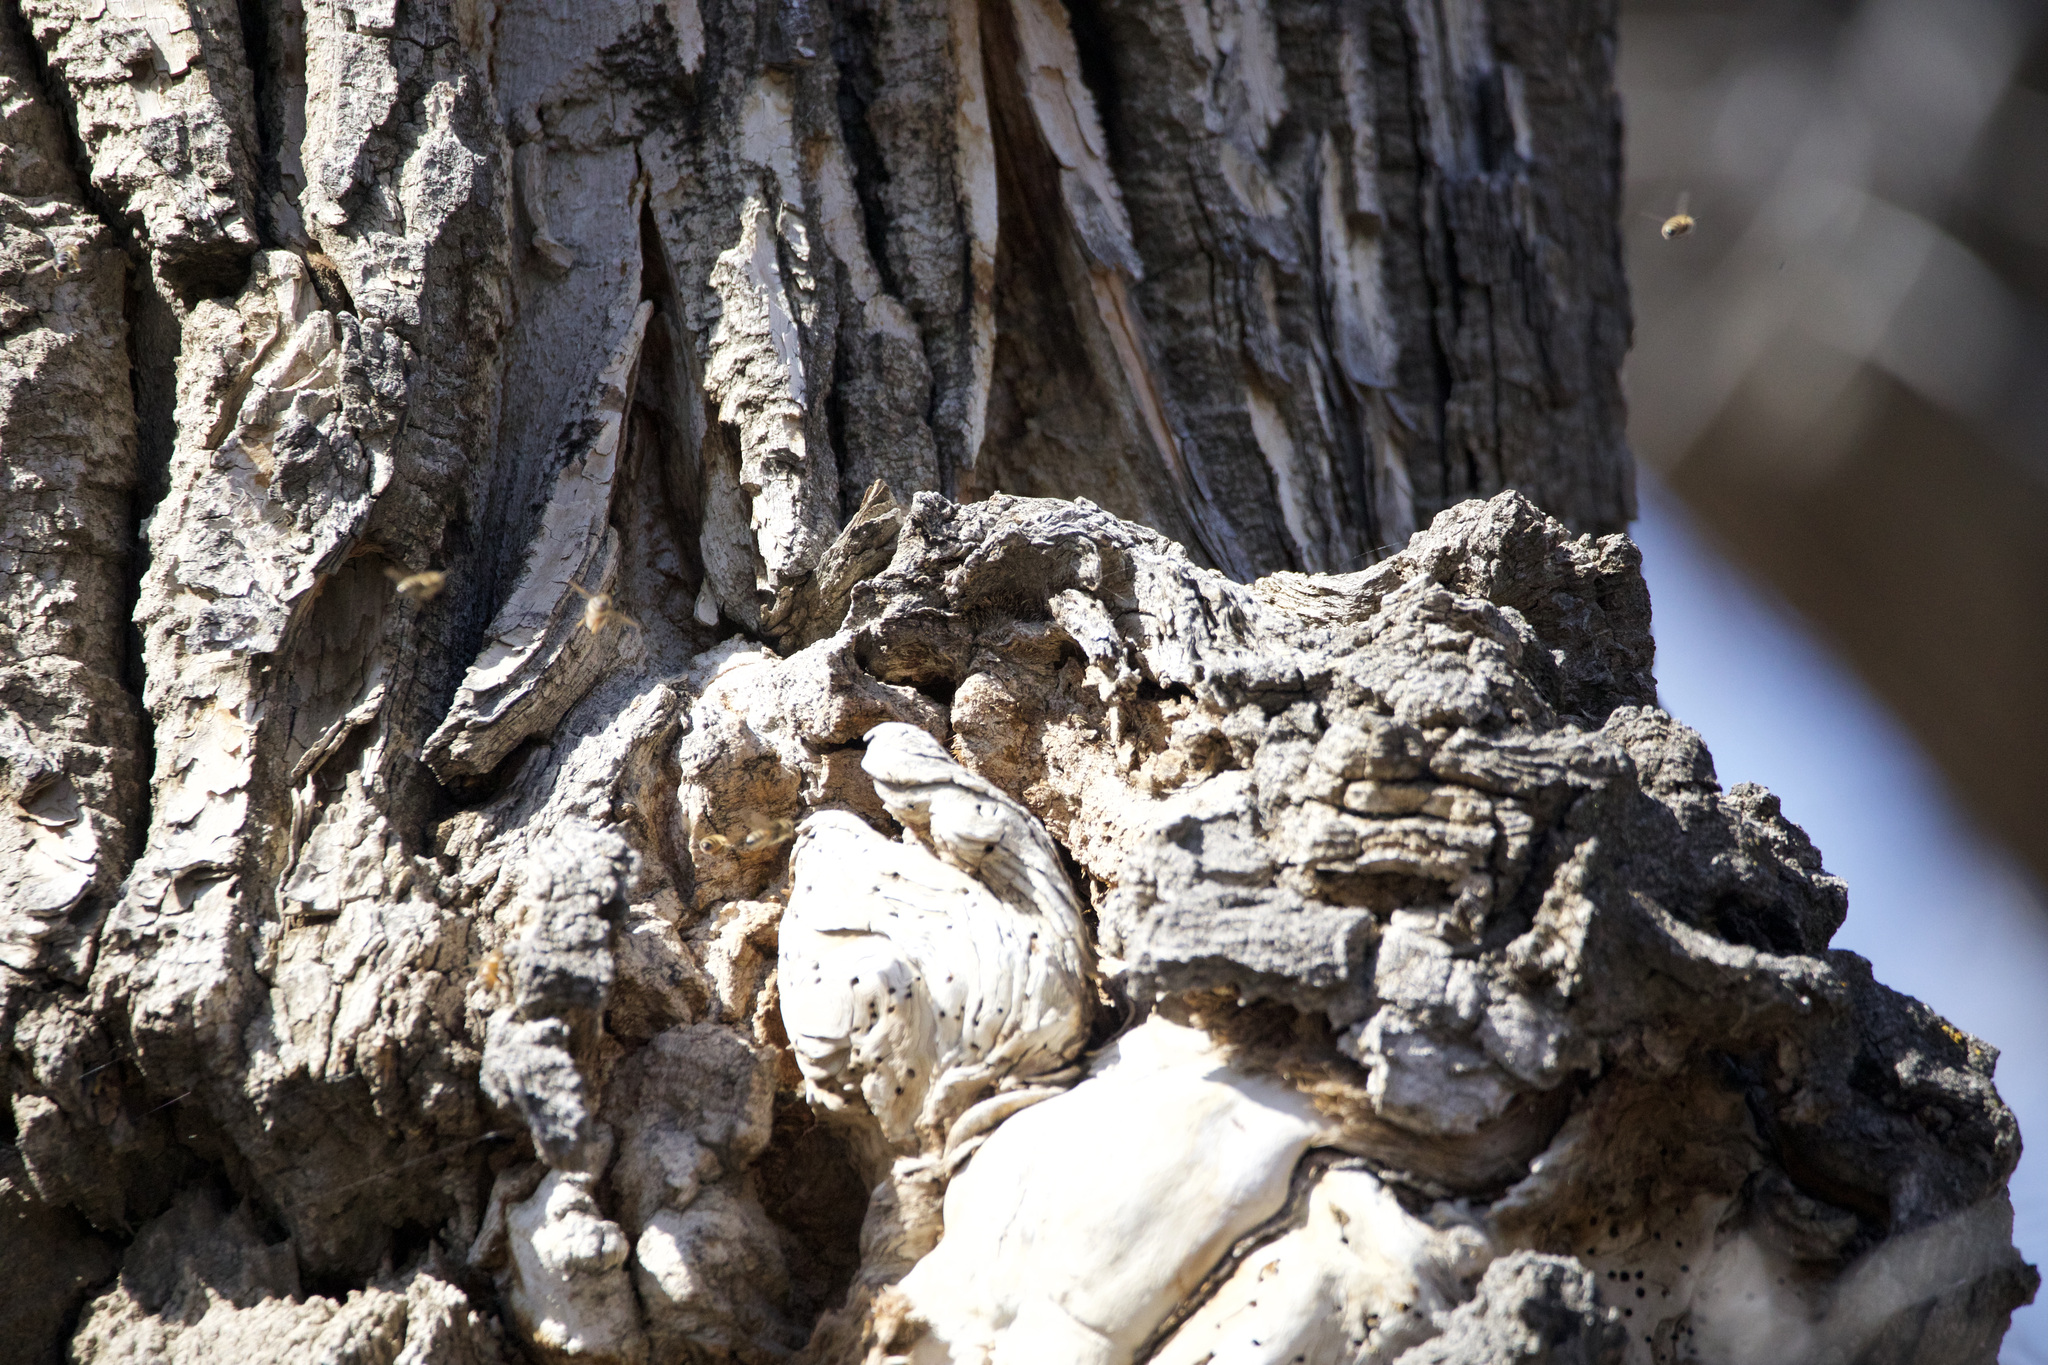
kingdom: Animalia
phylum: Arthropoda
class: Insecta
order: Hymenoptera
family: Apidae
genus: Apis
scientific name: Apis mellifera
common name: Honey bee
